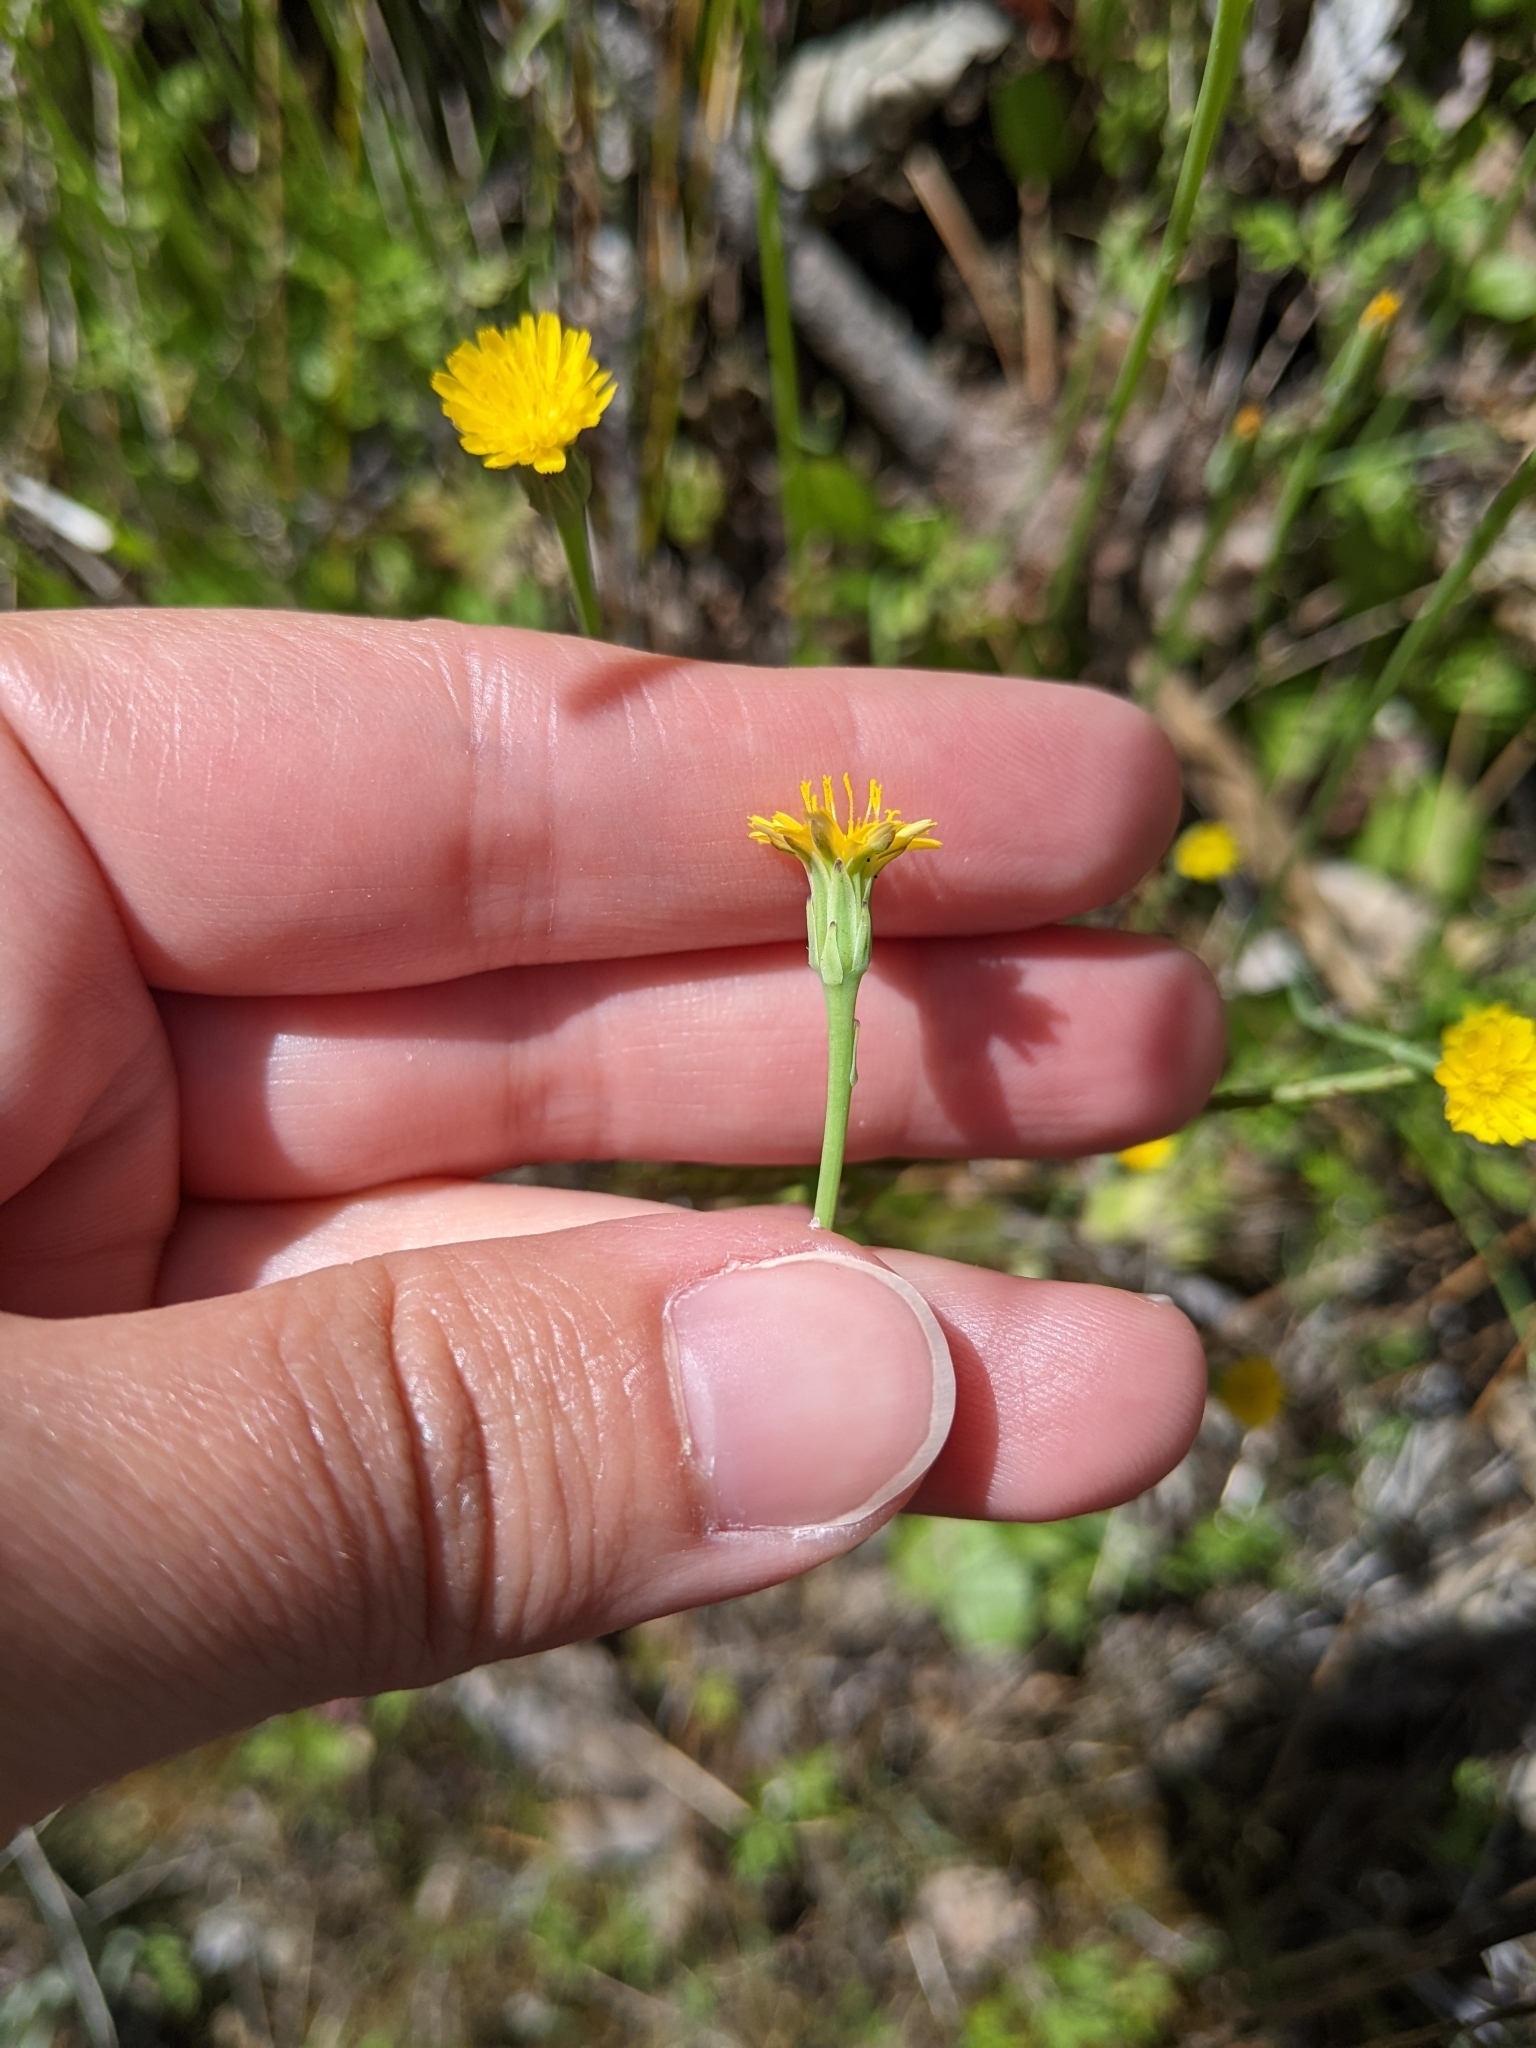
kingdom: Plantae
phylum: Tracheophyta
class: Magnoliopsida
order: Asterales
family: Asteraceae
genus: Hypochaeris
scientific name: Hypochaeris glabra
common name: Smooth catsear
